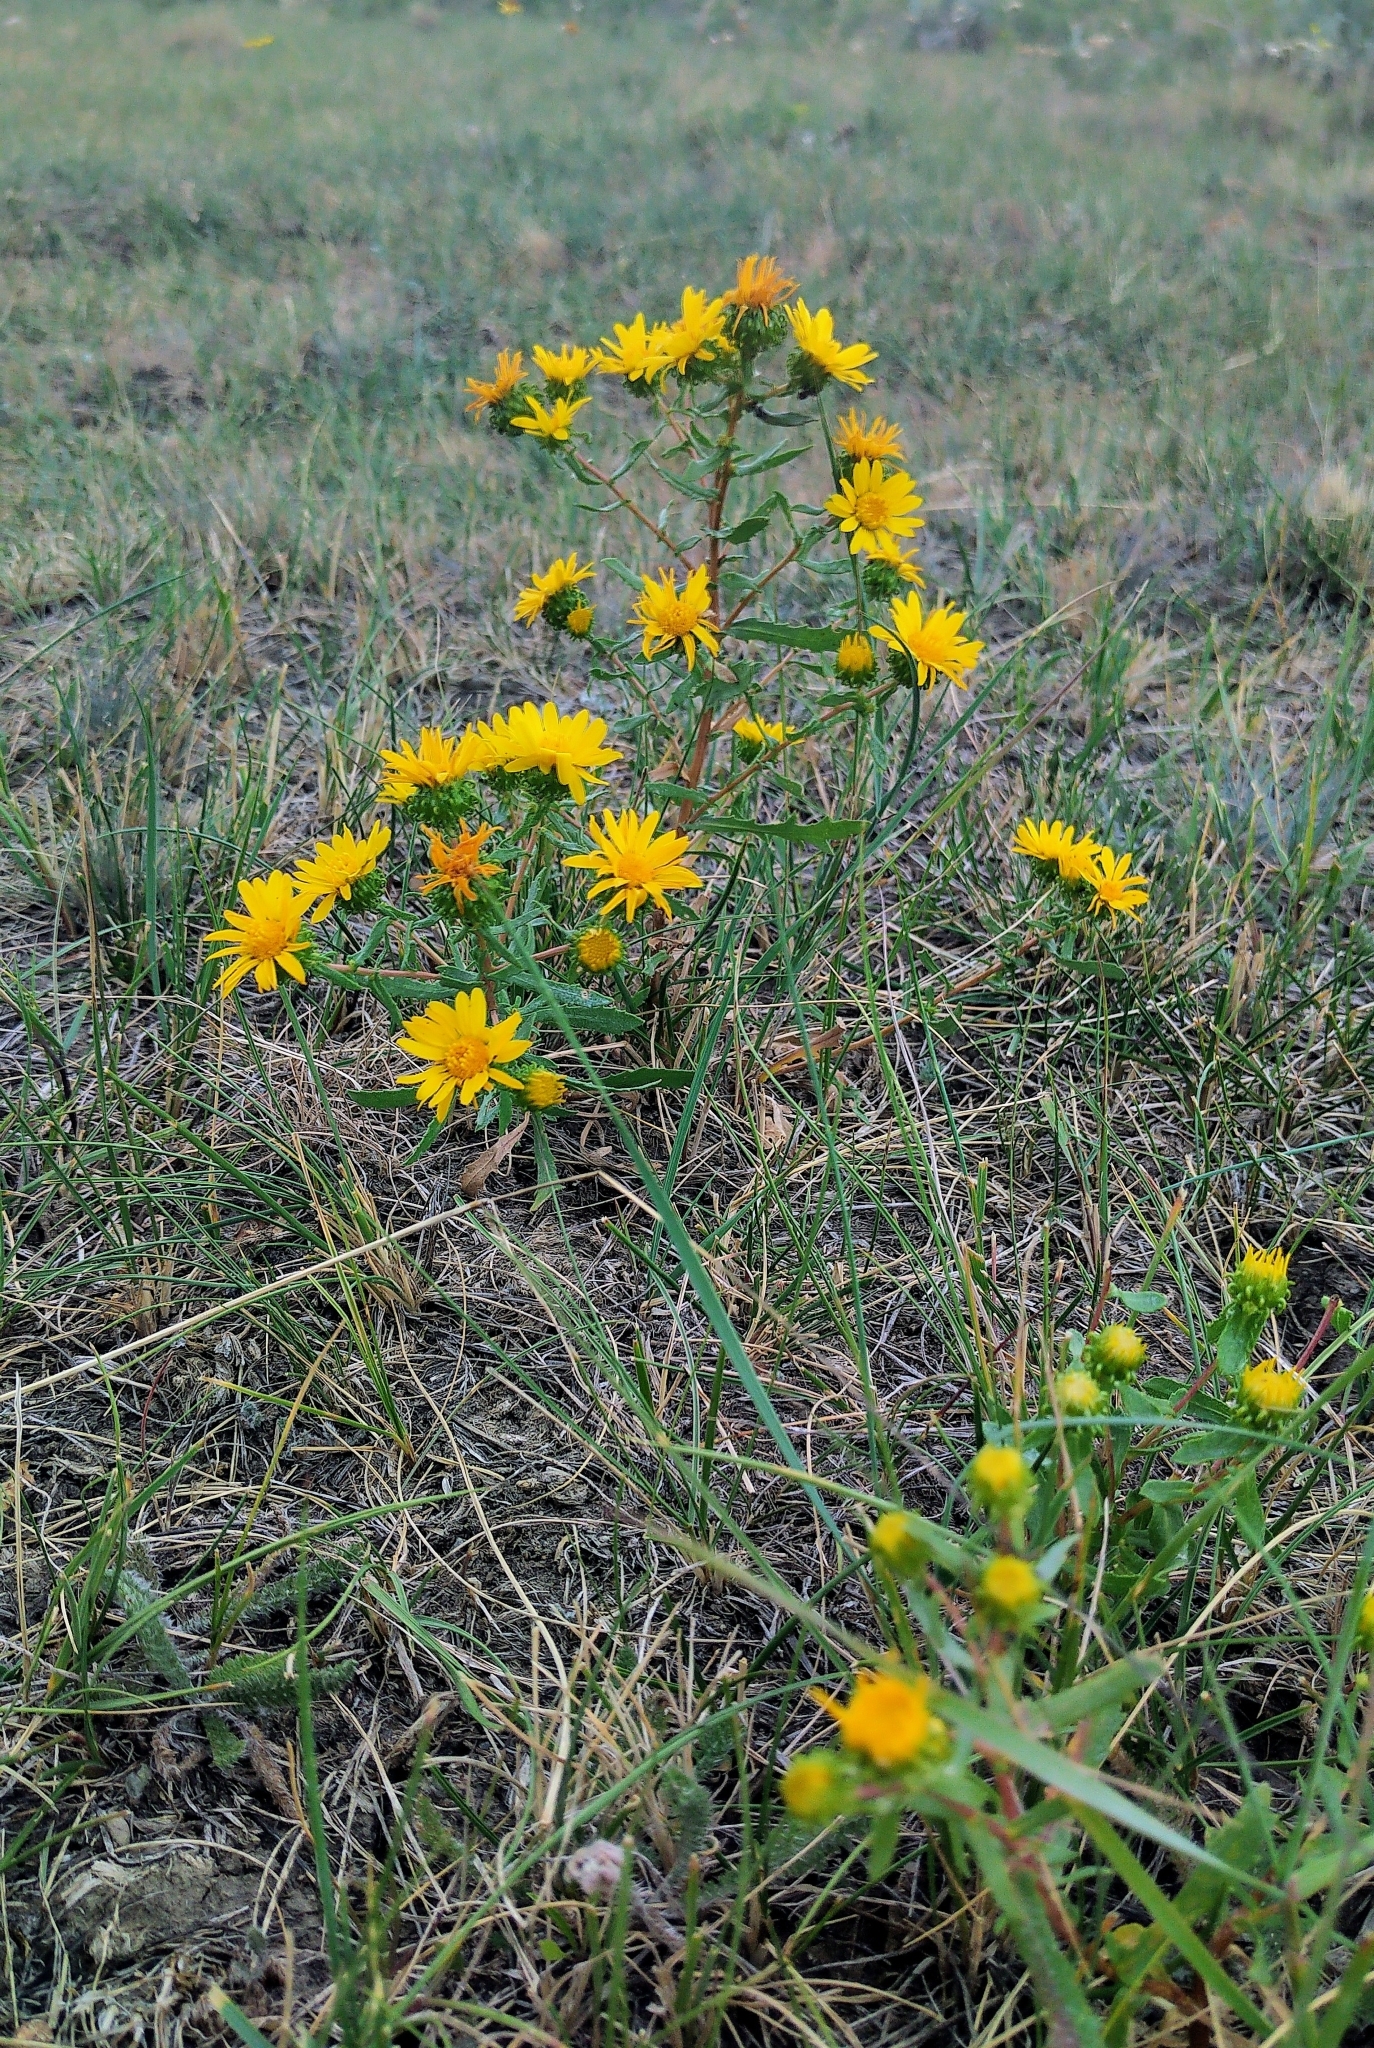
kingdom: Plantae
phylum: Tracheophyta
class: Magnoliopsida
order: Asterales
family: Asteraceae
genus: Grindelia
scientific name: Grindelia squarrosa
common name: Curly-cup gumweed
